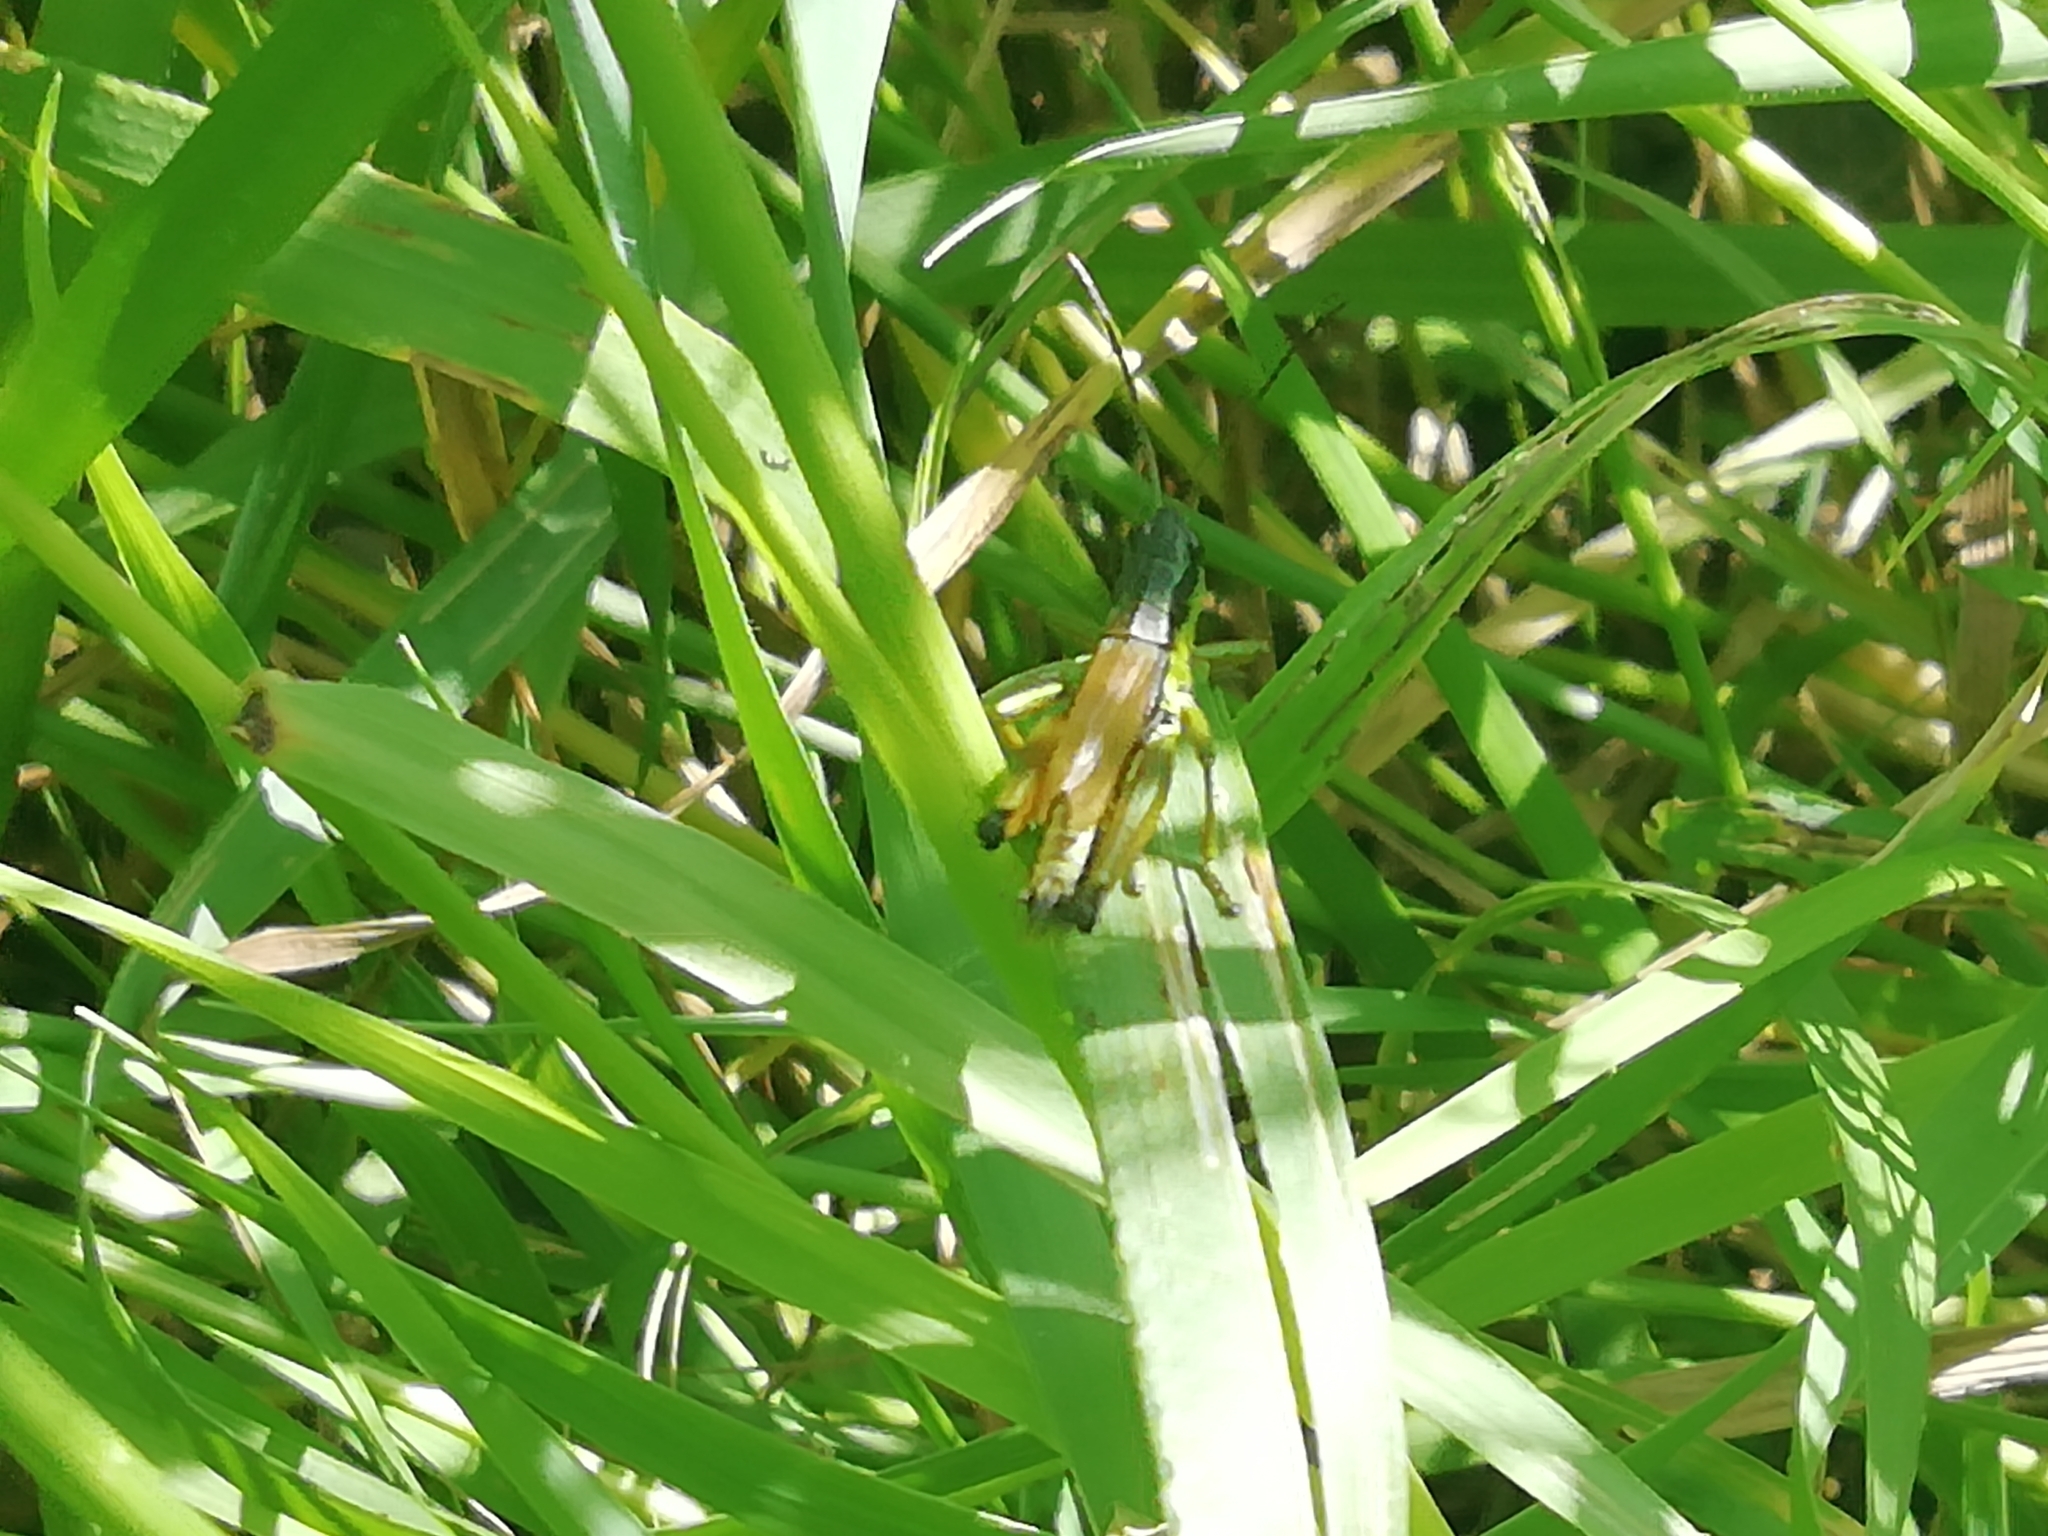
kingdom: Animalia
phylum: Arthropoda
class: Insecta
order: Orthoptera
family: Acrididae
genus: Podismopsis
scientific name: Podismopsis poppiusi
